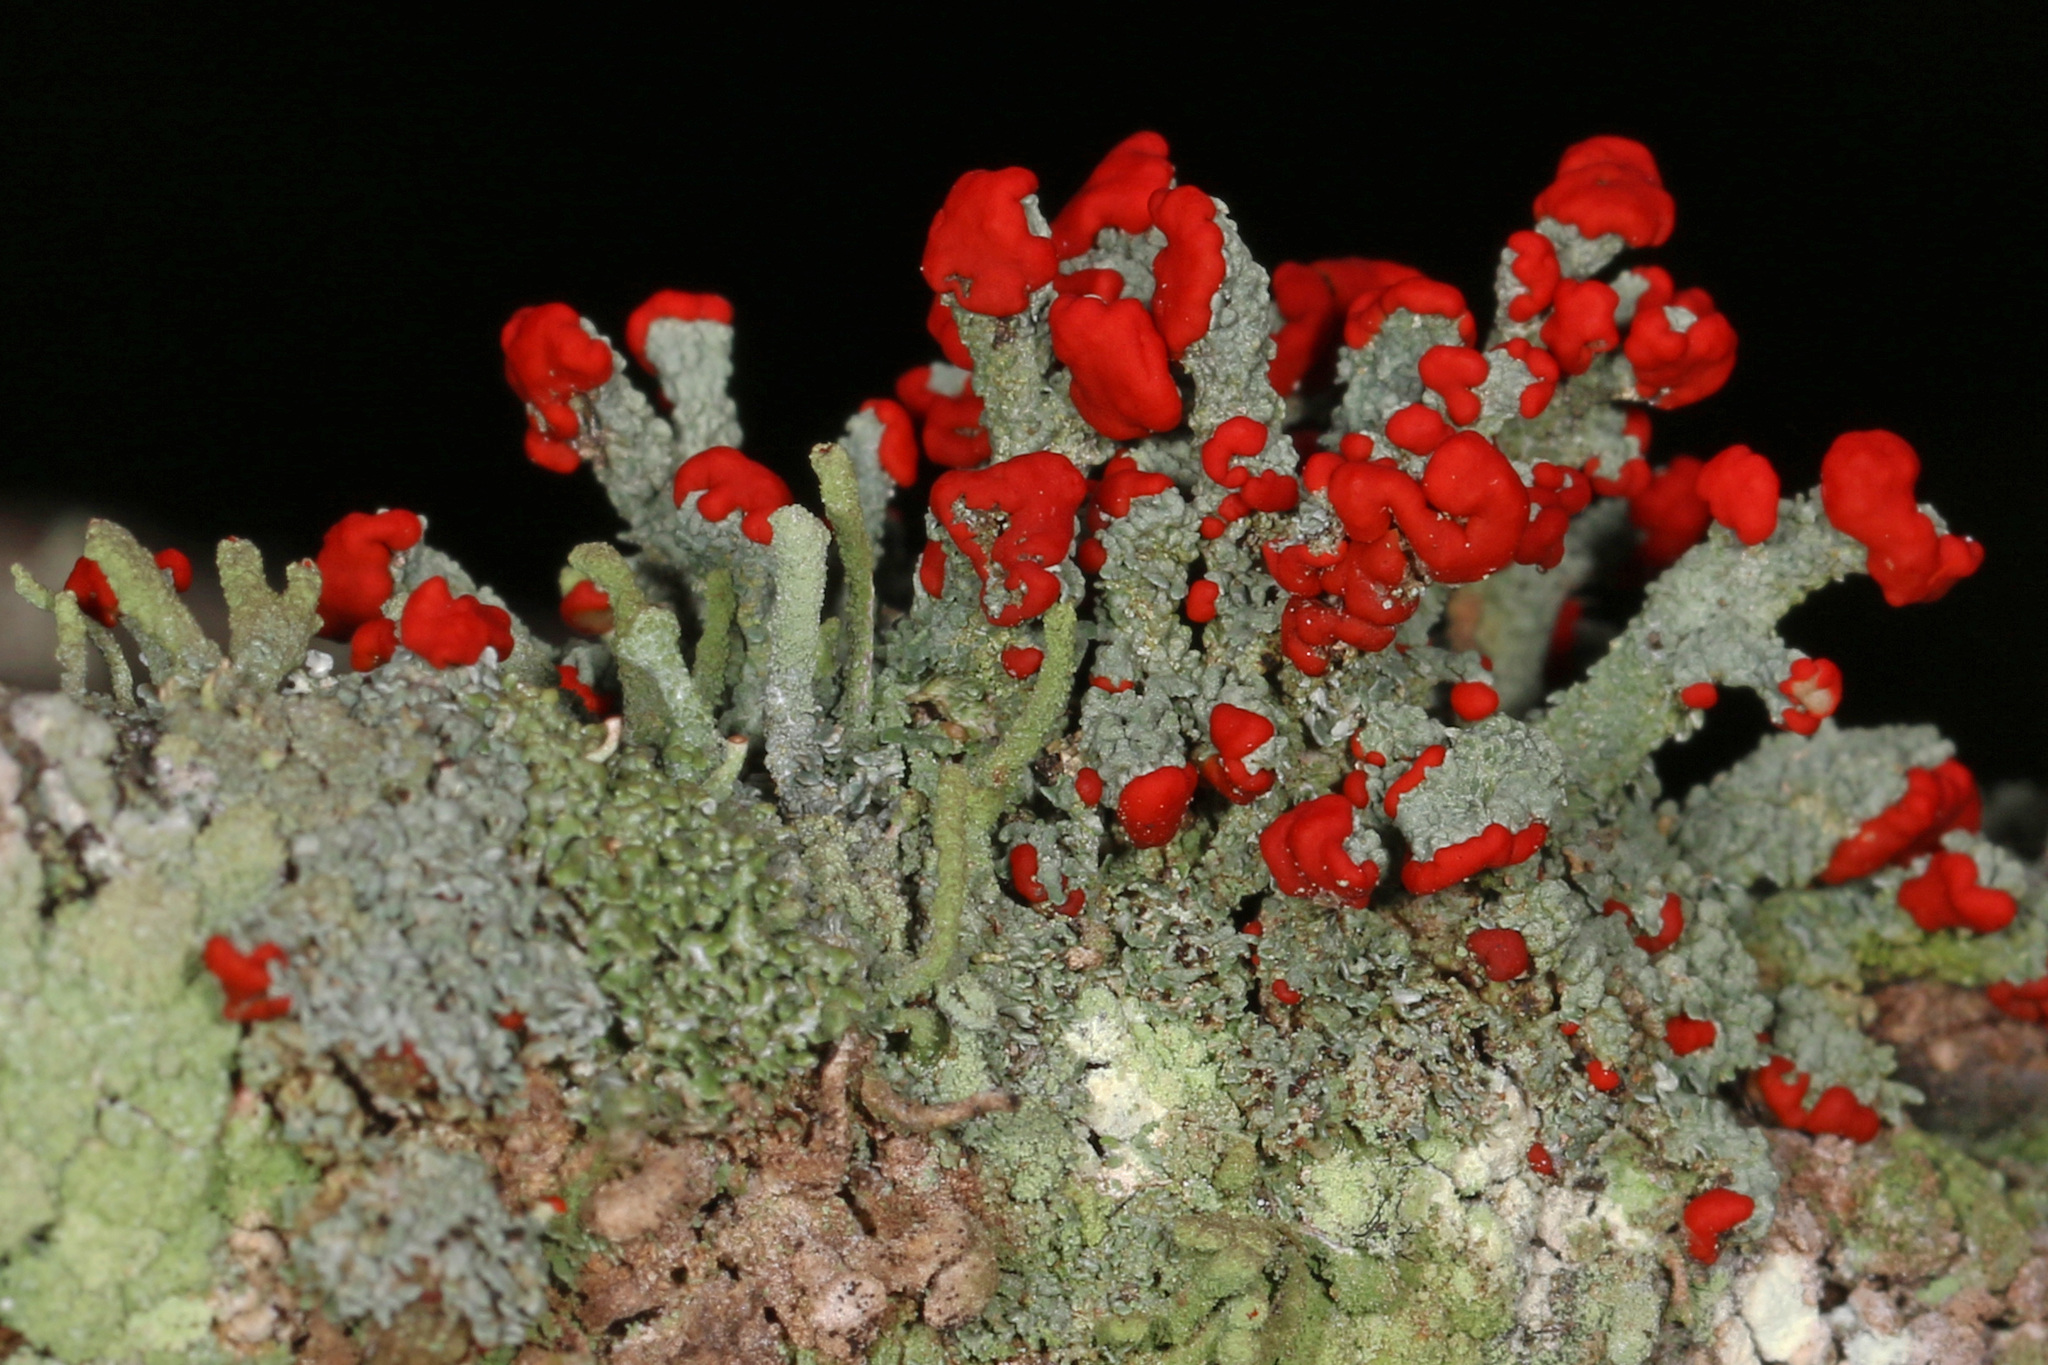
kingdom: Fungi
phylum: Ascomycota
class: Lecanoromycetes
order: Lecanorales
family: Cladoniaceae
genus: Cladonia
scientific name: Cladonia cristatella
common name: British soldier lichen
